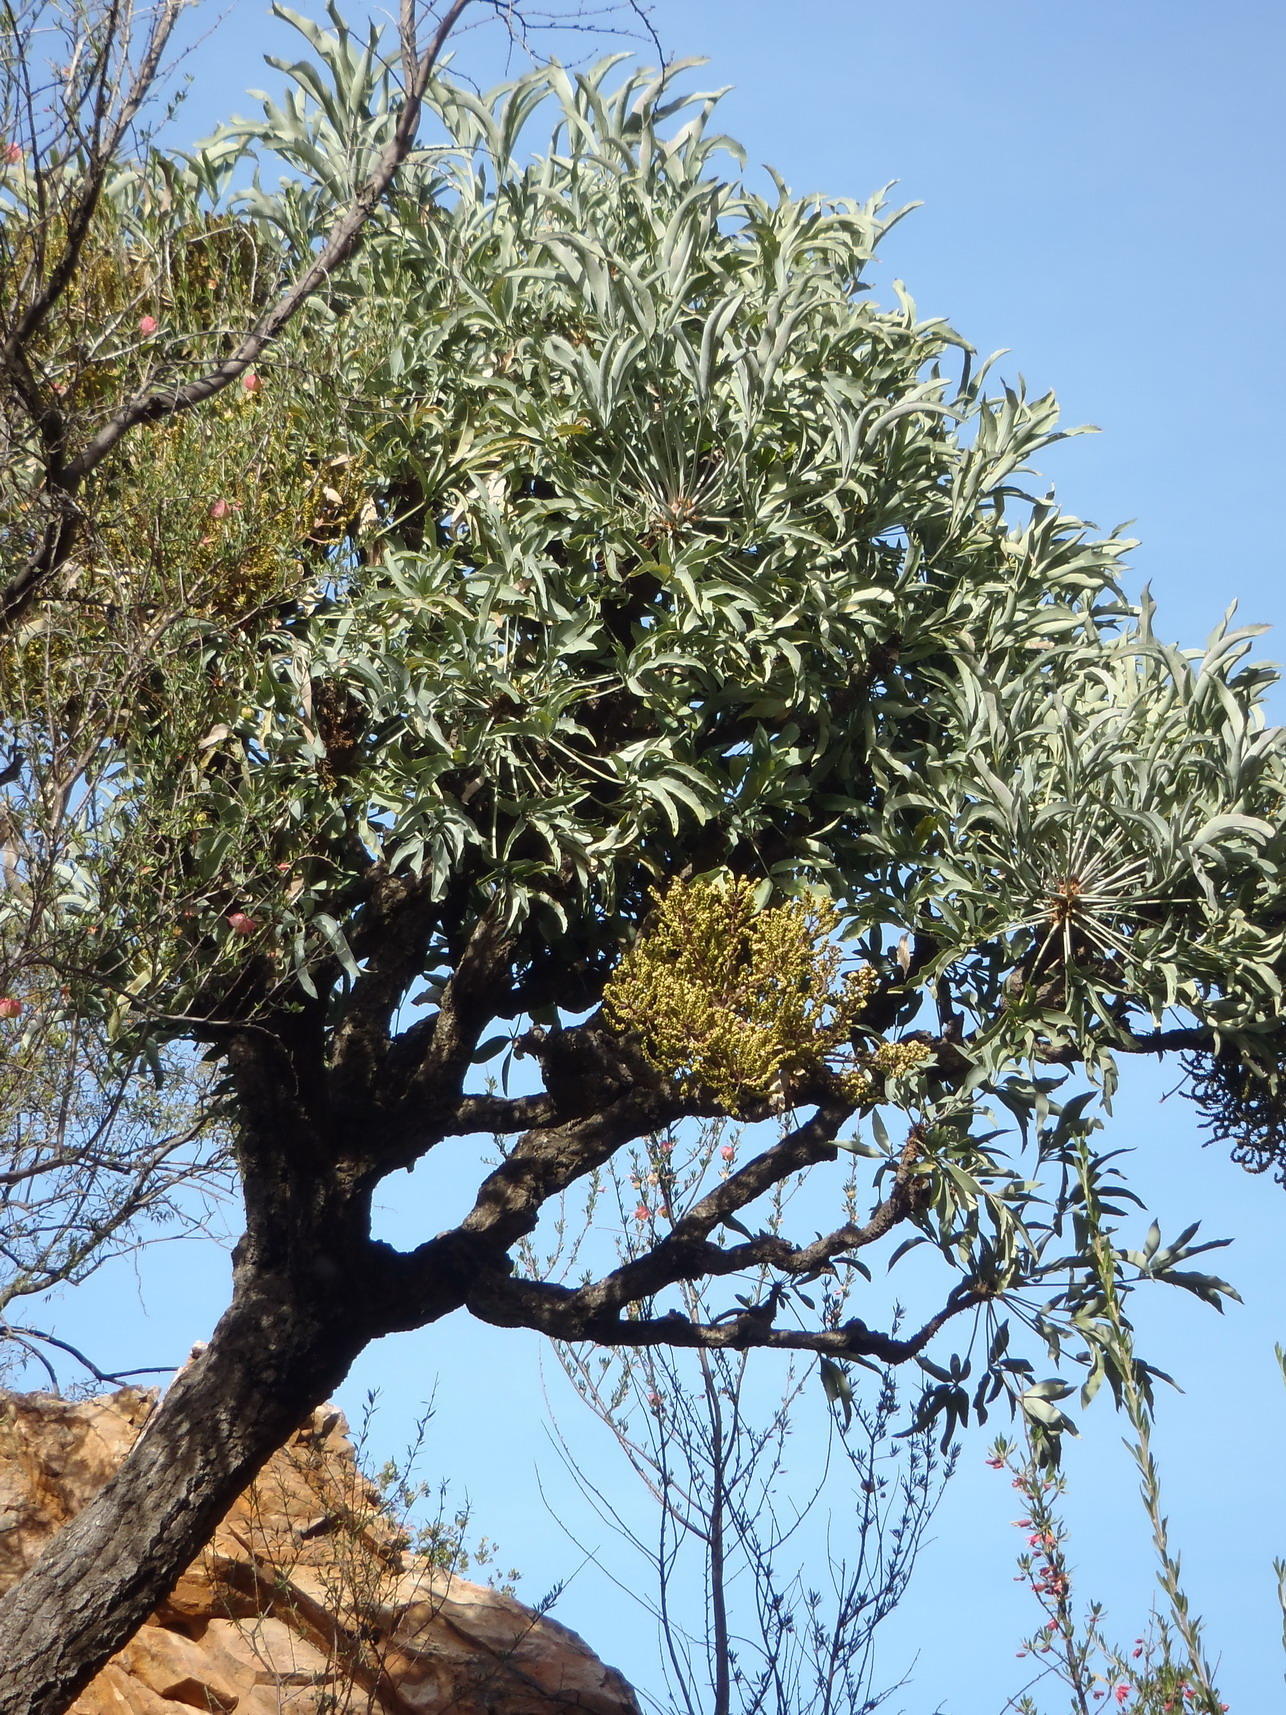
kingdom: Plantae
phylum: Tracheophyta
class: Magnoliopsida
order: Apiales
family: Araliaceae
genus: Cussonia
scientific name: Cussonia paniculata
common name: Cabbagetree
